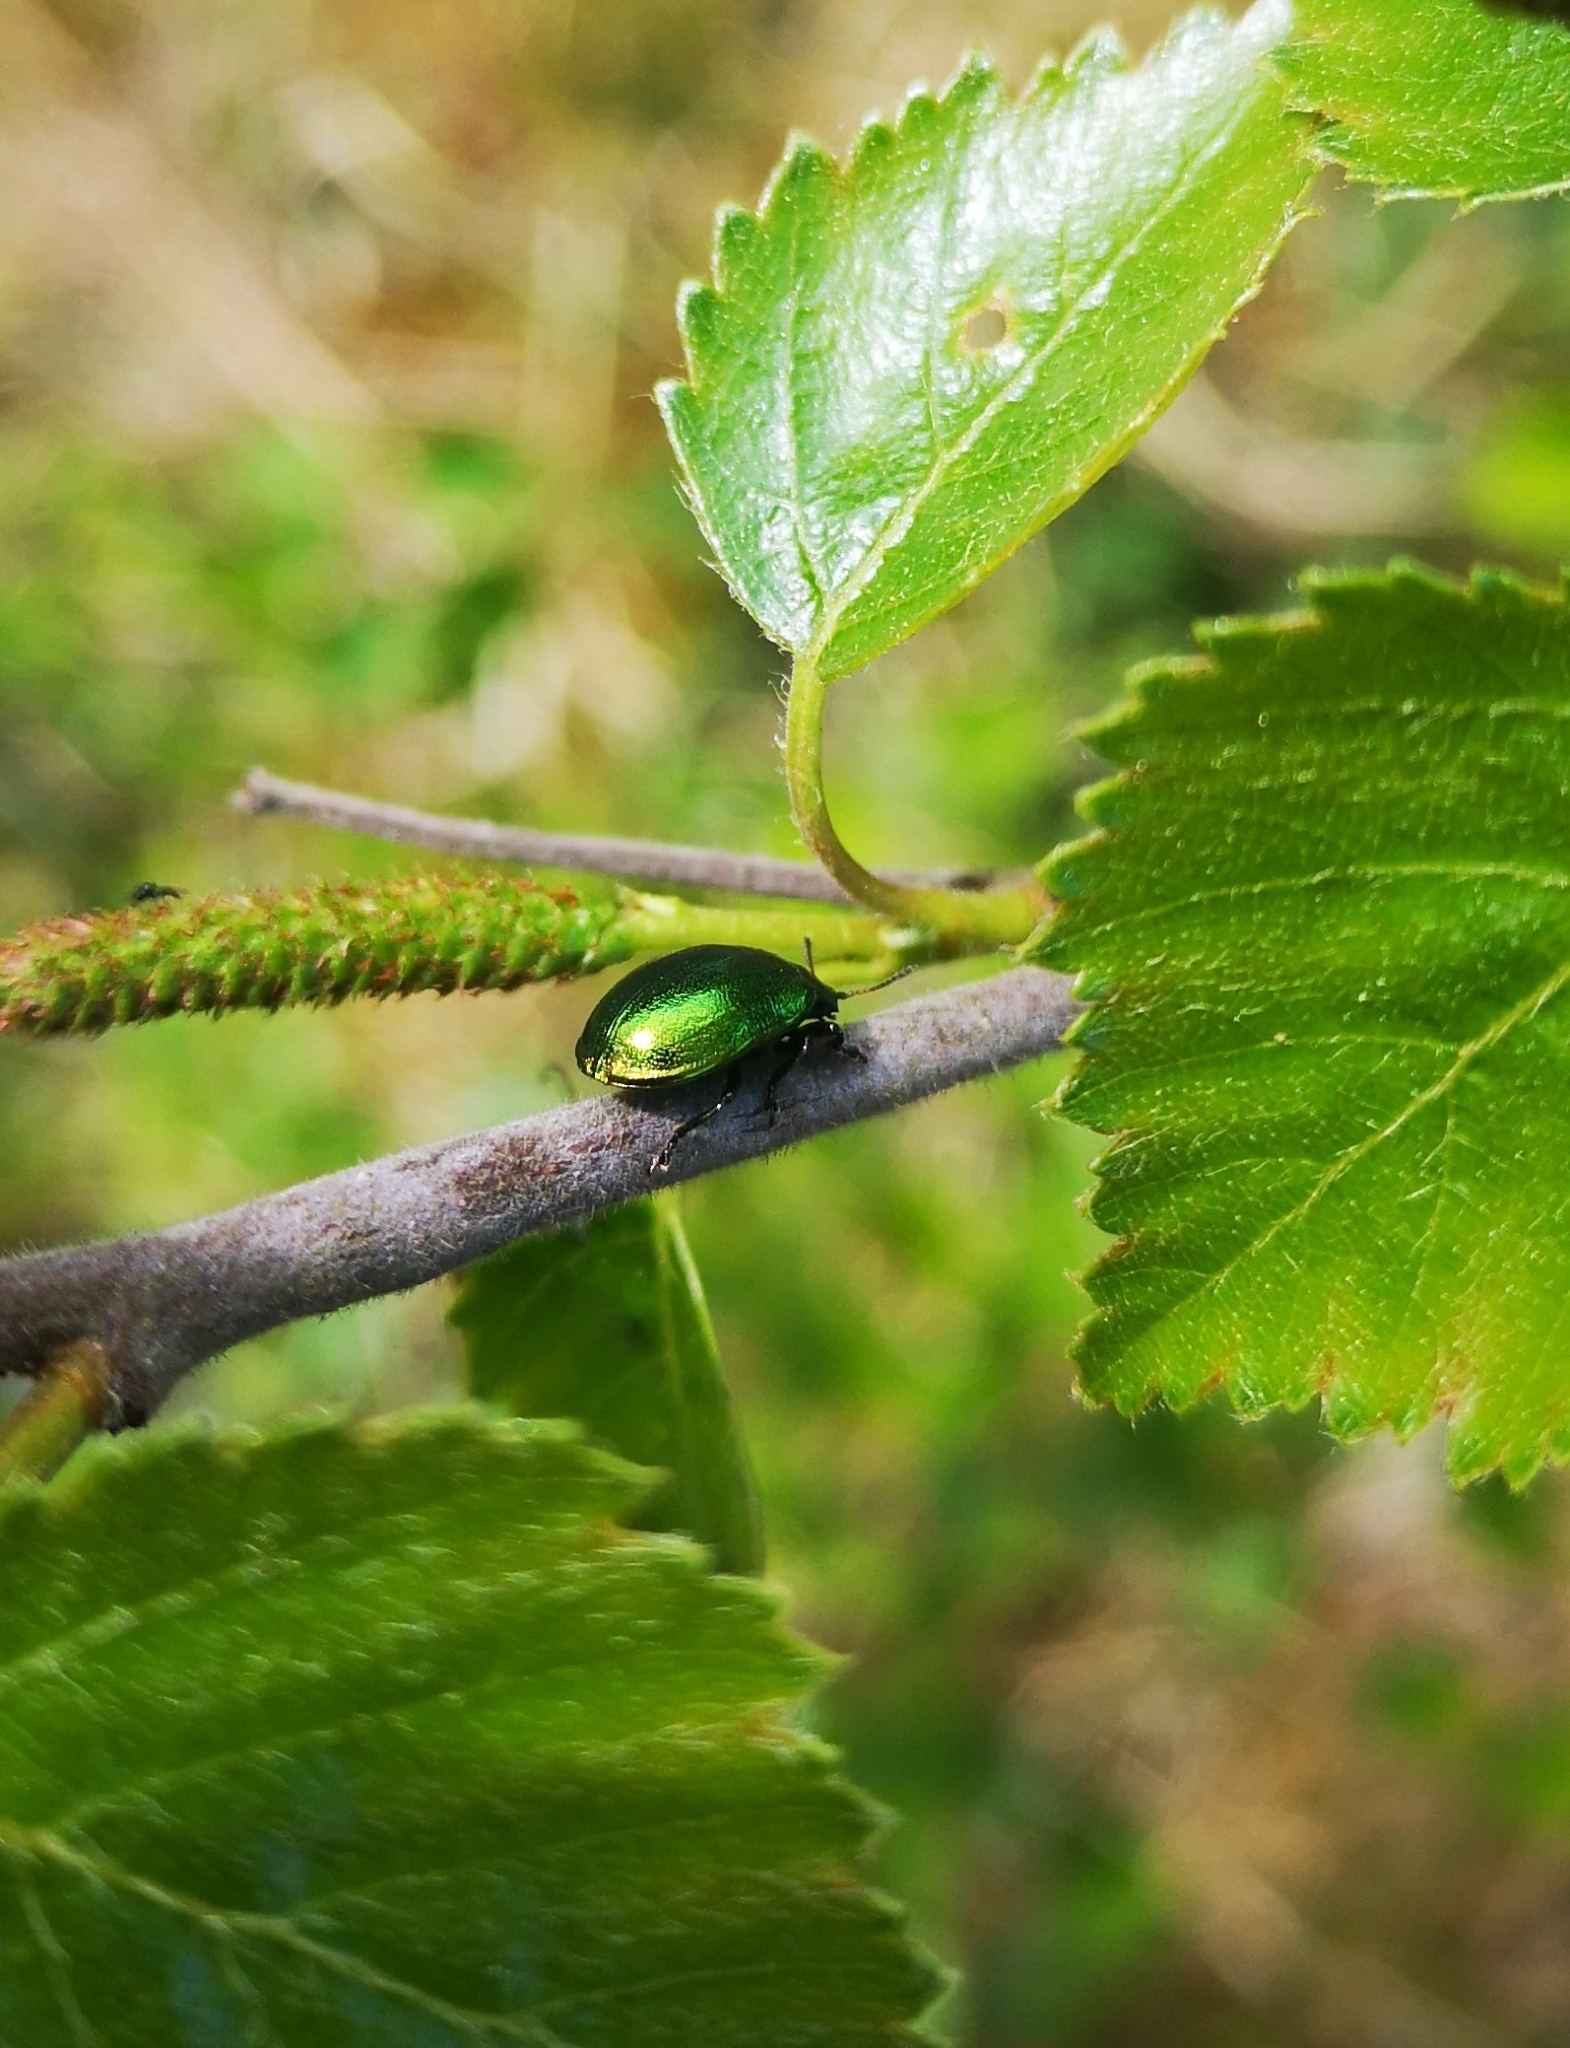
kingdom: Animalia
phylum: Arthropoda
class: Insecta
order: Coleoptera
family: Chrysomelidae
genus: Plagiosterna
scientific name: Plagiosterna aenea
